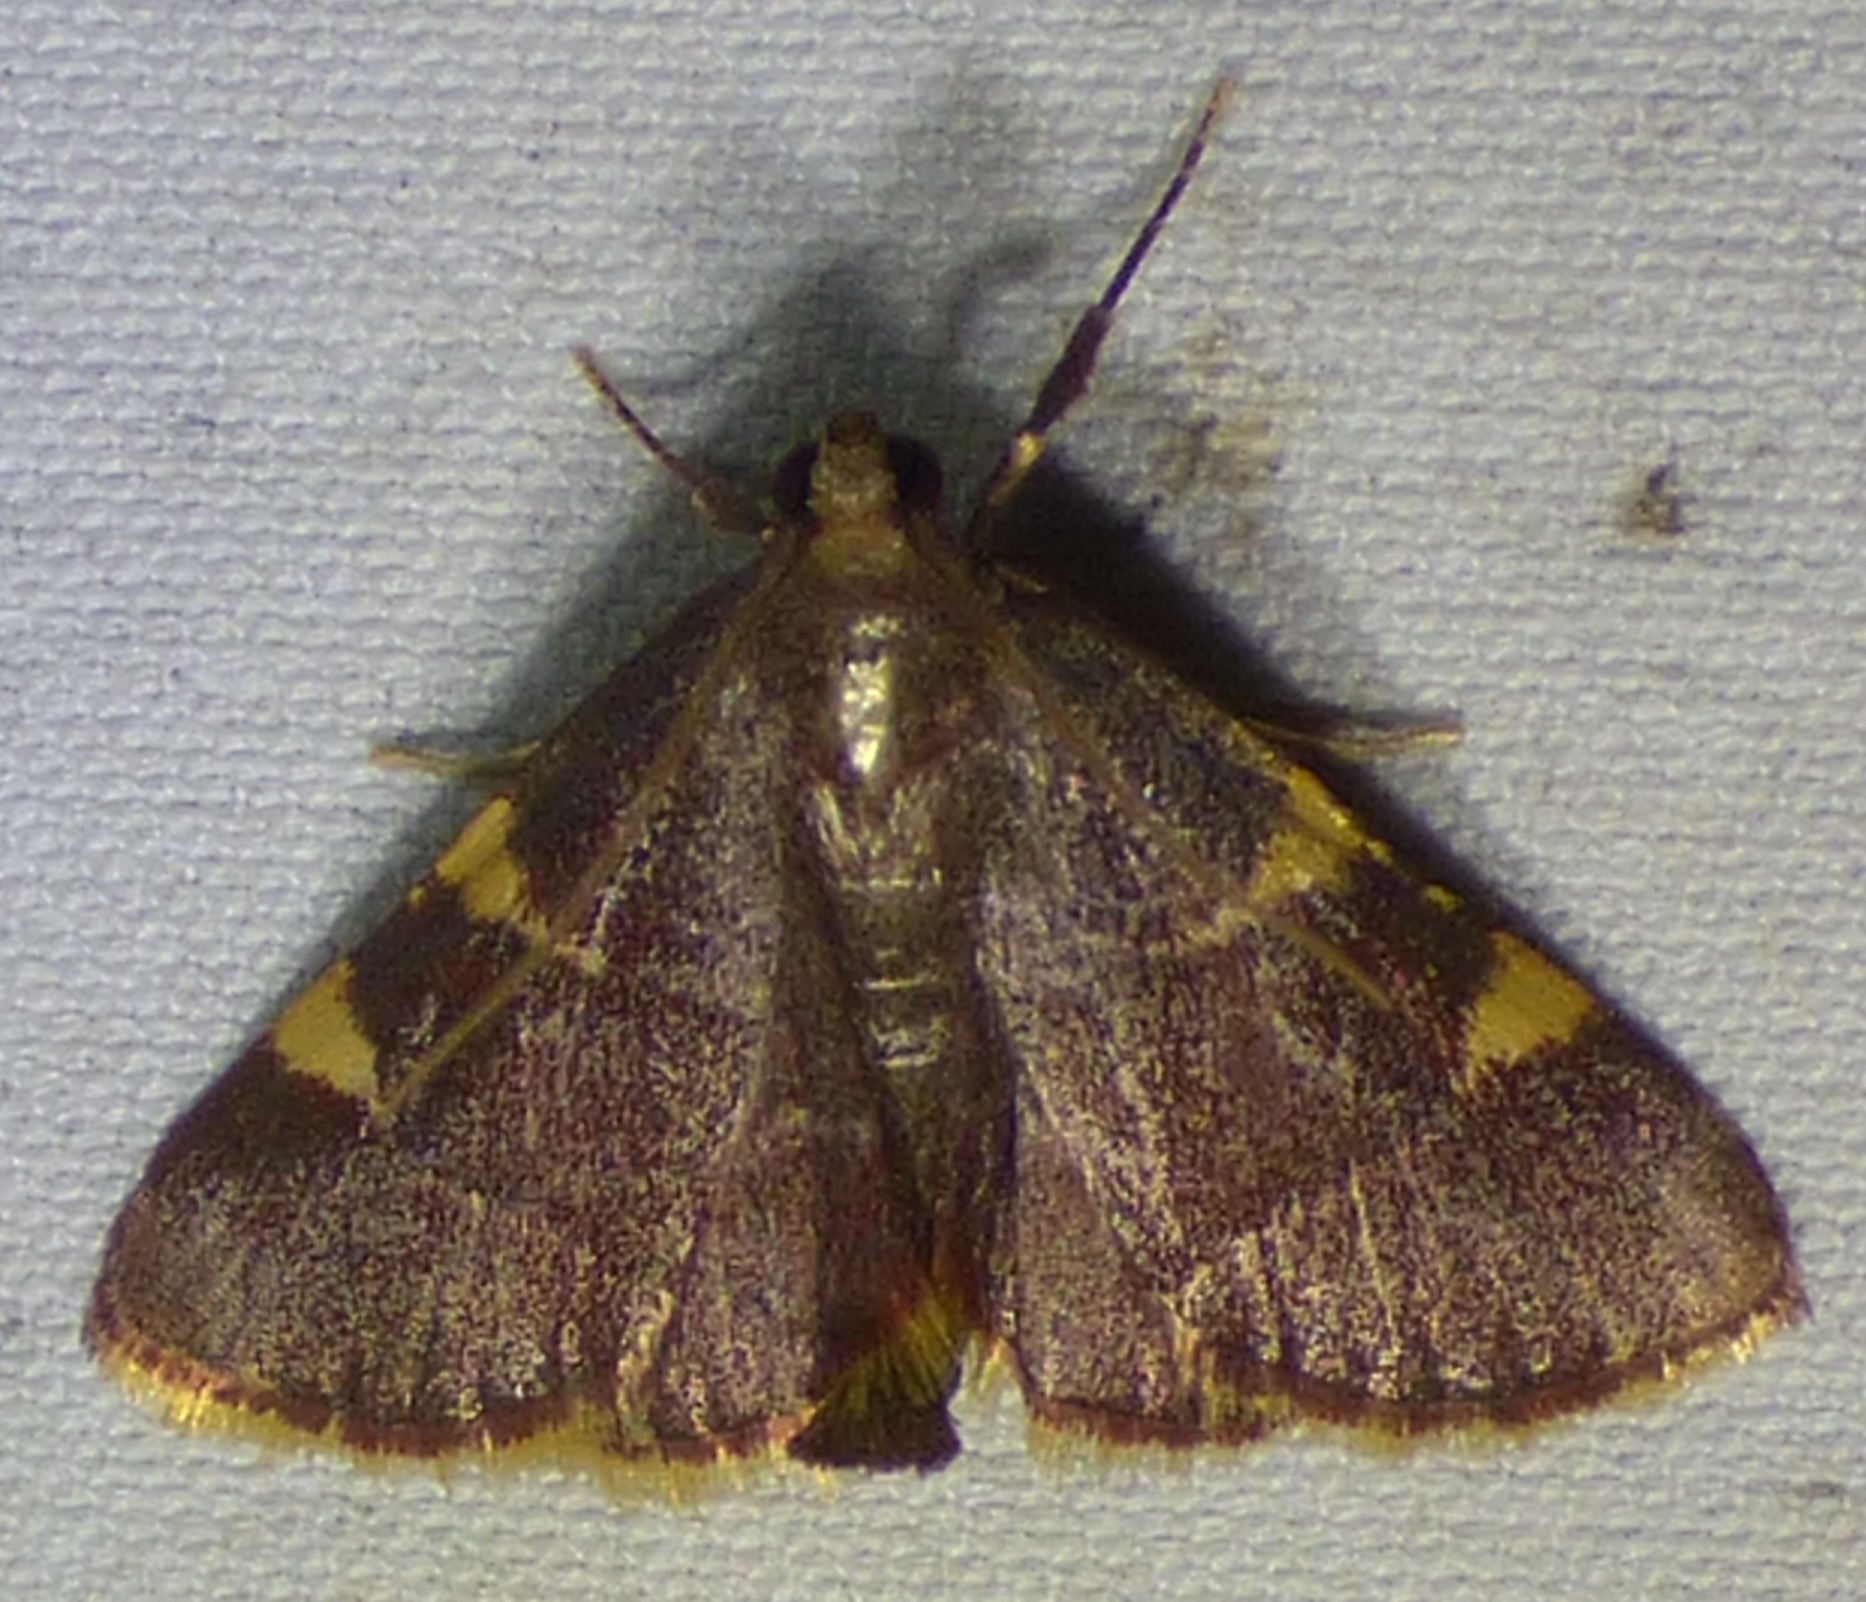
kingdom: Animalia
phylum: Arthropoda
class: Insecta
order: Lepidoptera
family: Pyralidae
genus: Hypsopygia
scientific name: Hypsopygia olinalis
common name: Yellow-fringed dolichomia moth
